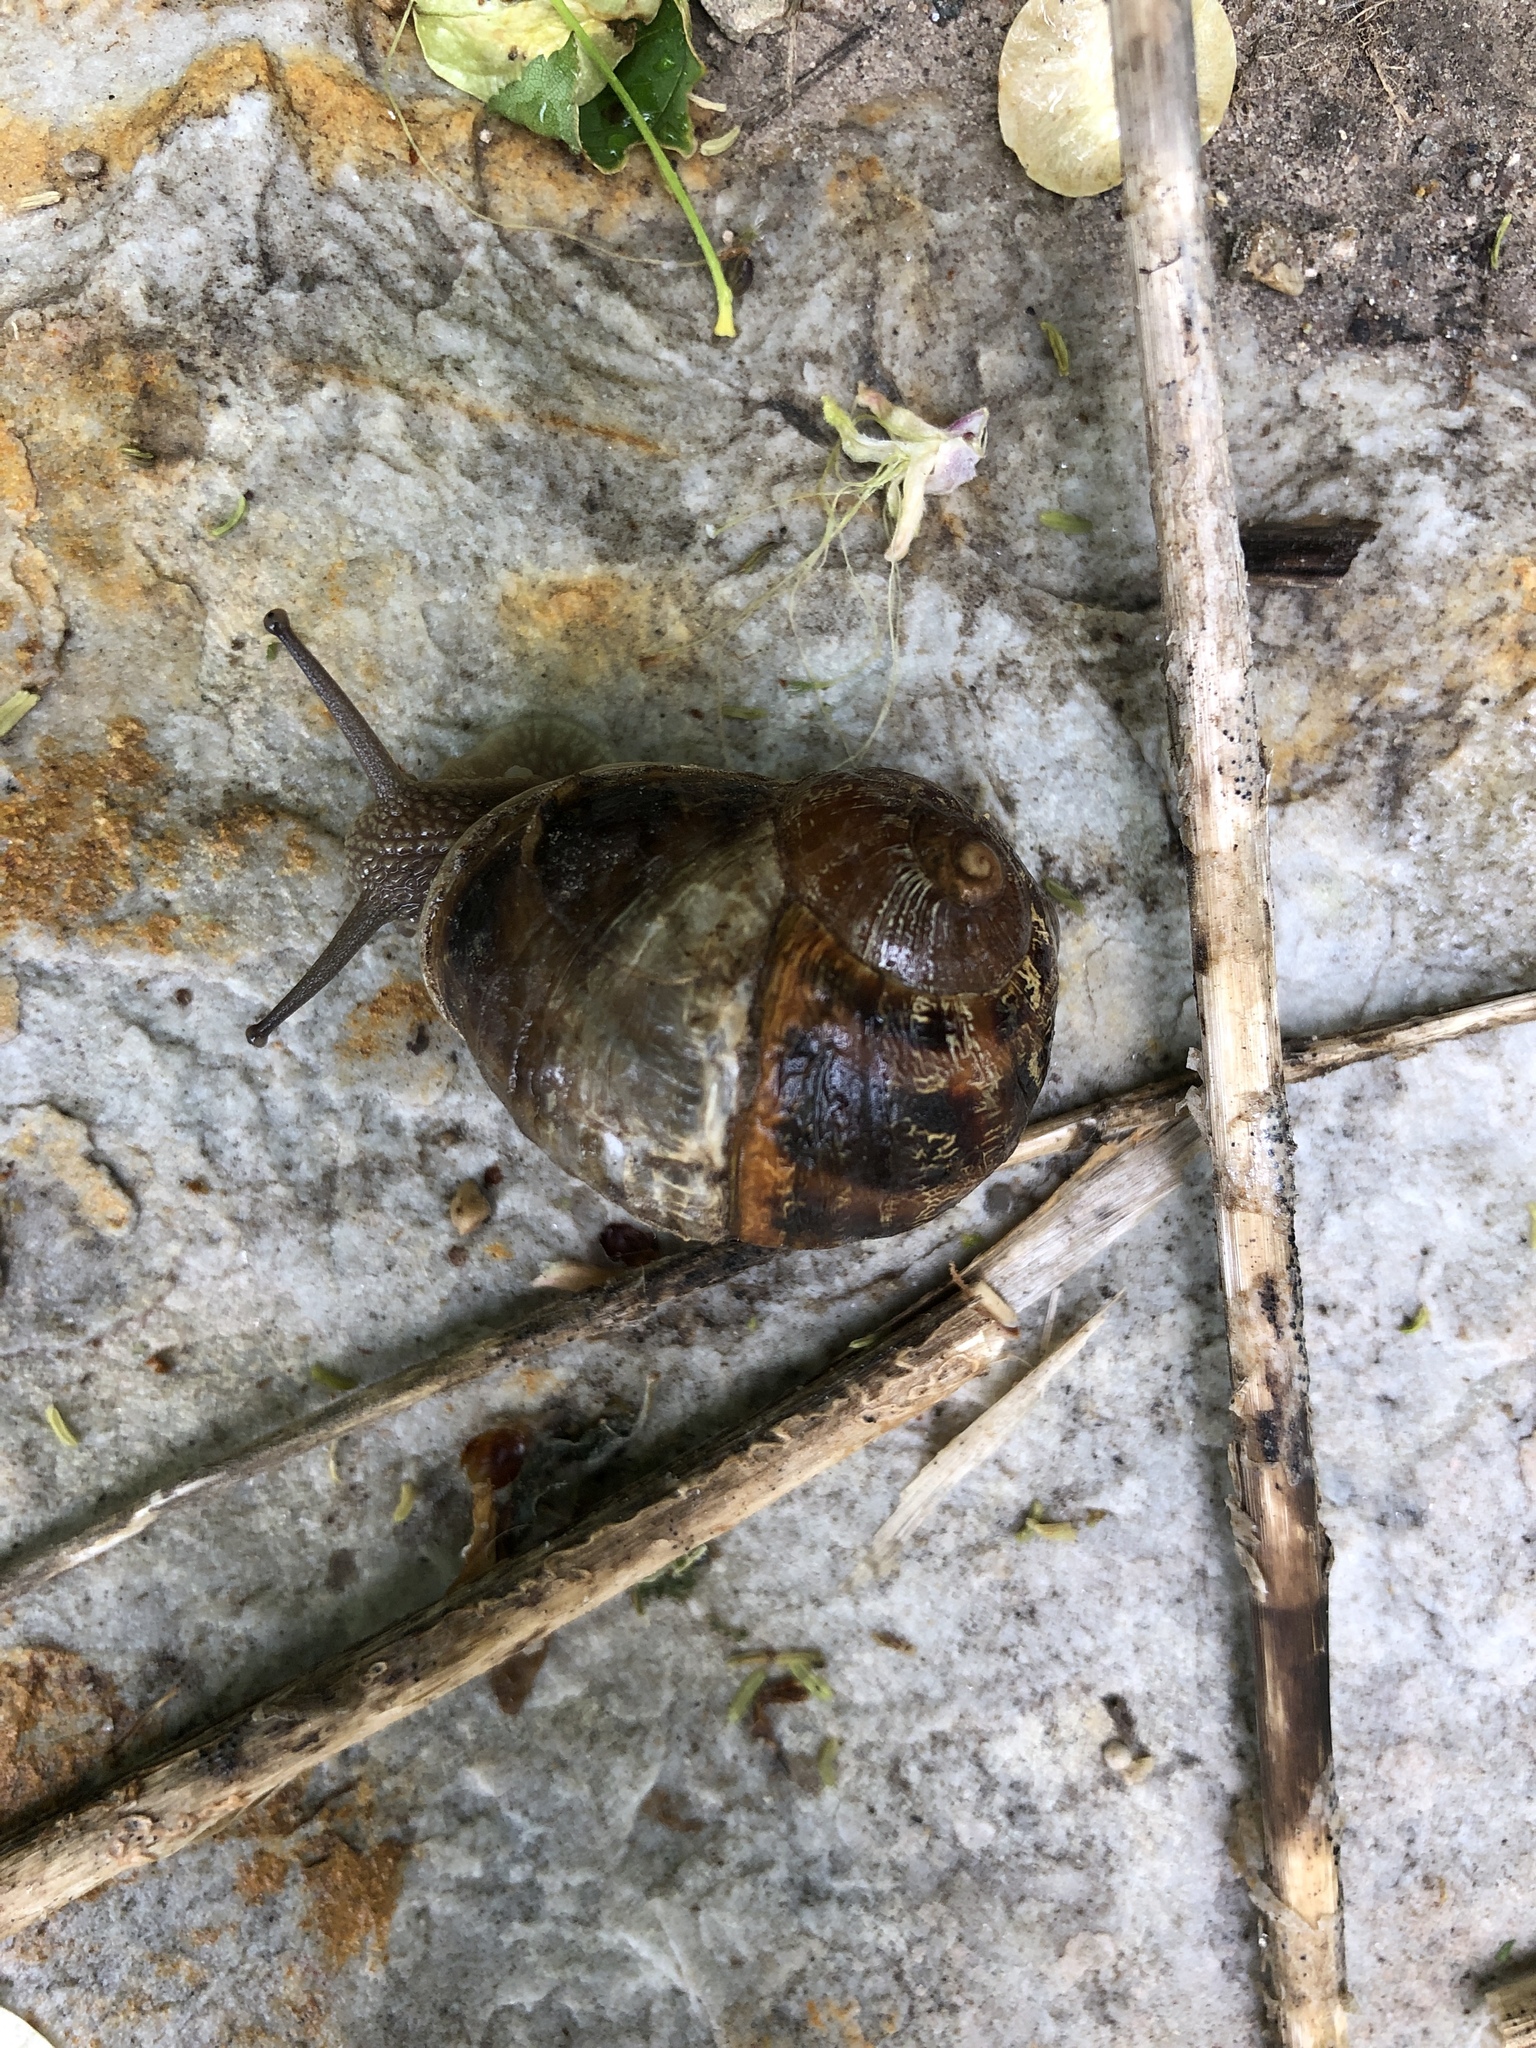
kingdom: Animalia
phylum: Mollusca
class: Gastropoda
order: Stylommatophora
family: Helicidae
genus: Cornu
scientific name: Cornu aspersum
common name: Brown garden snail
